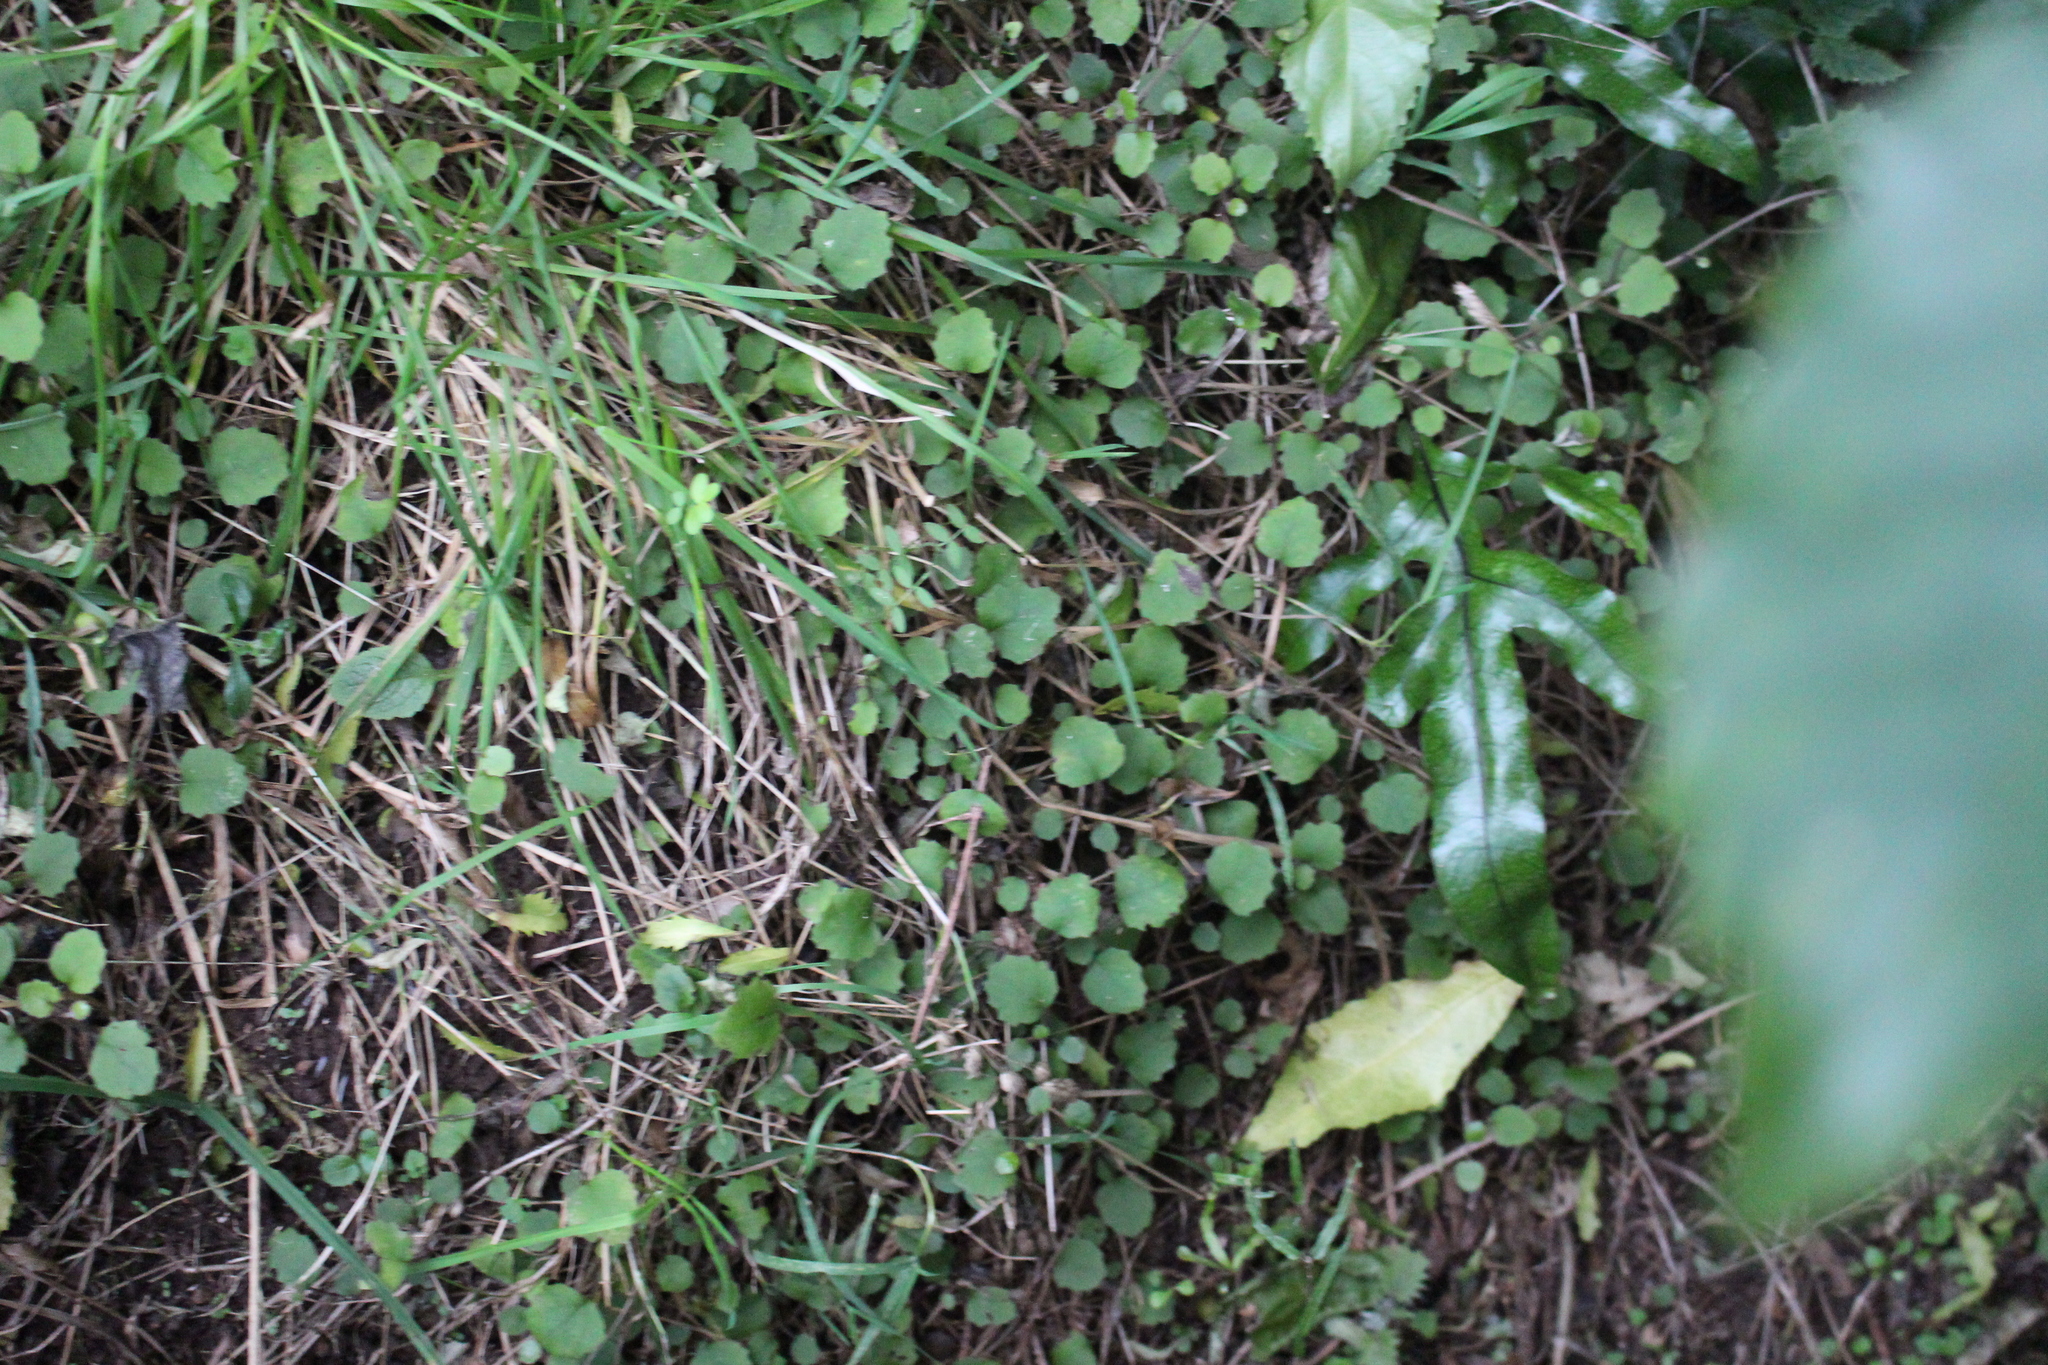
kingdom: Plantae
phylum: Tracheophyta
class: Magnoliopsida
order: Asterales
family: Asteraceae
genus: Brachyglottis
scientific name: Brachyglottis sciadophila
